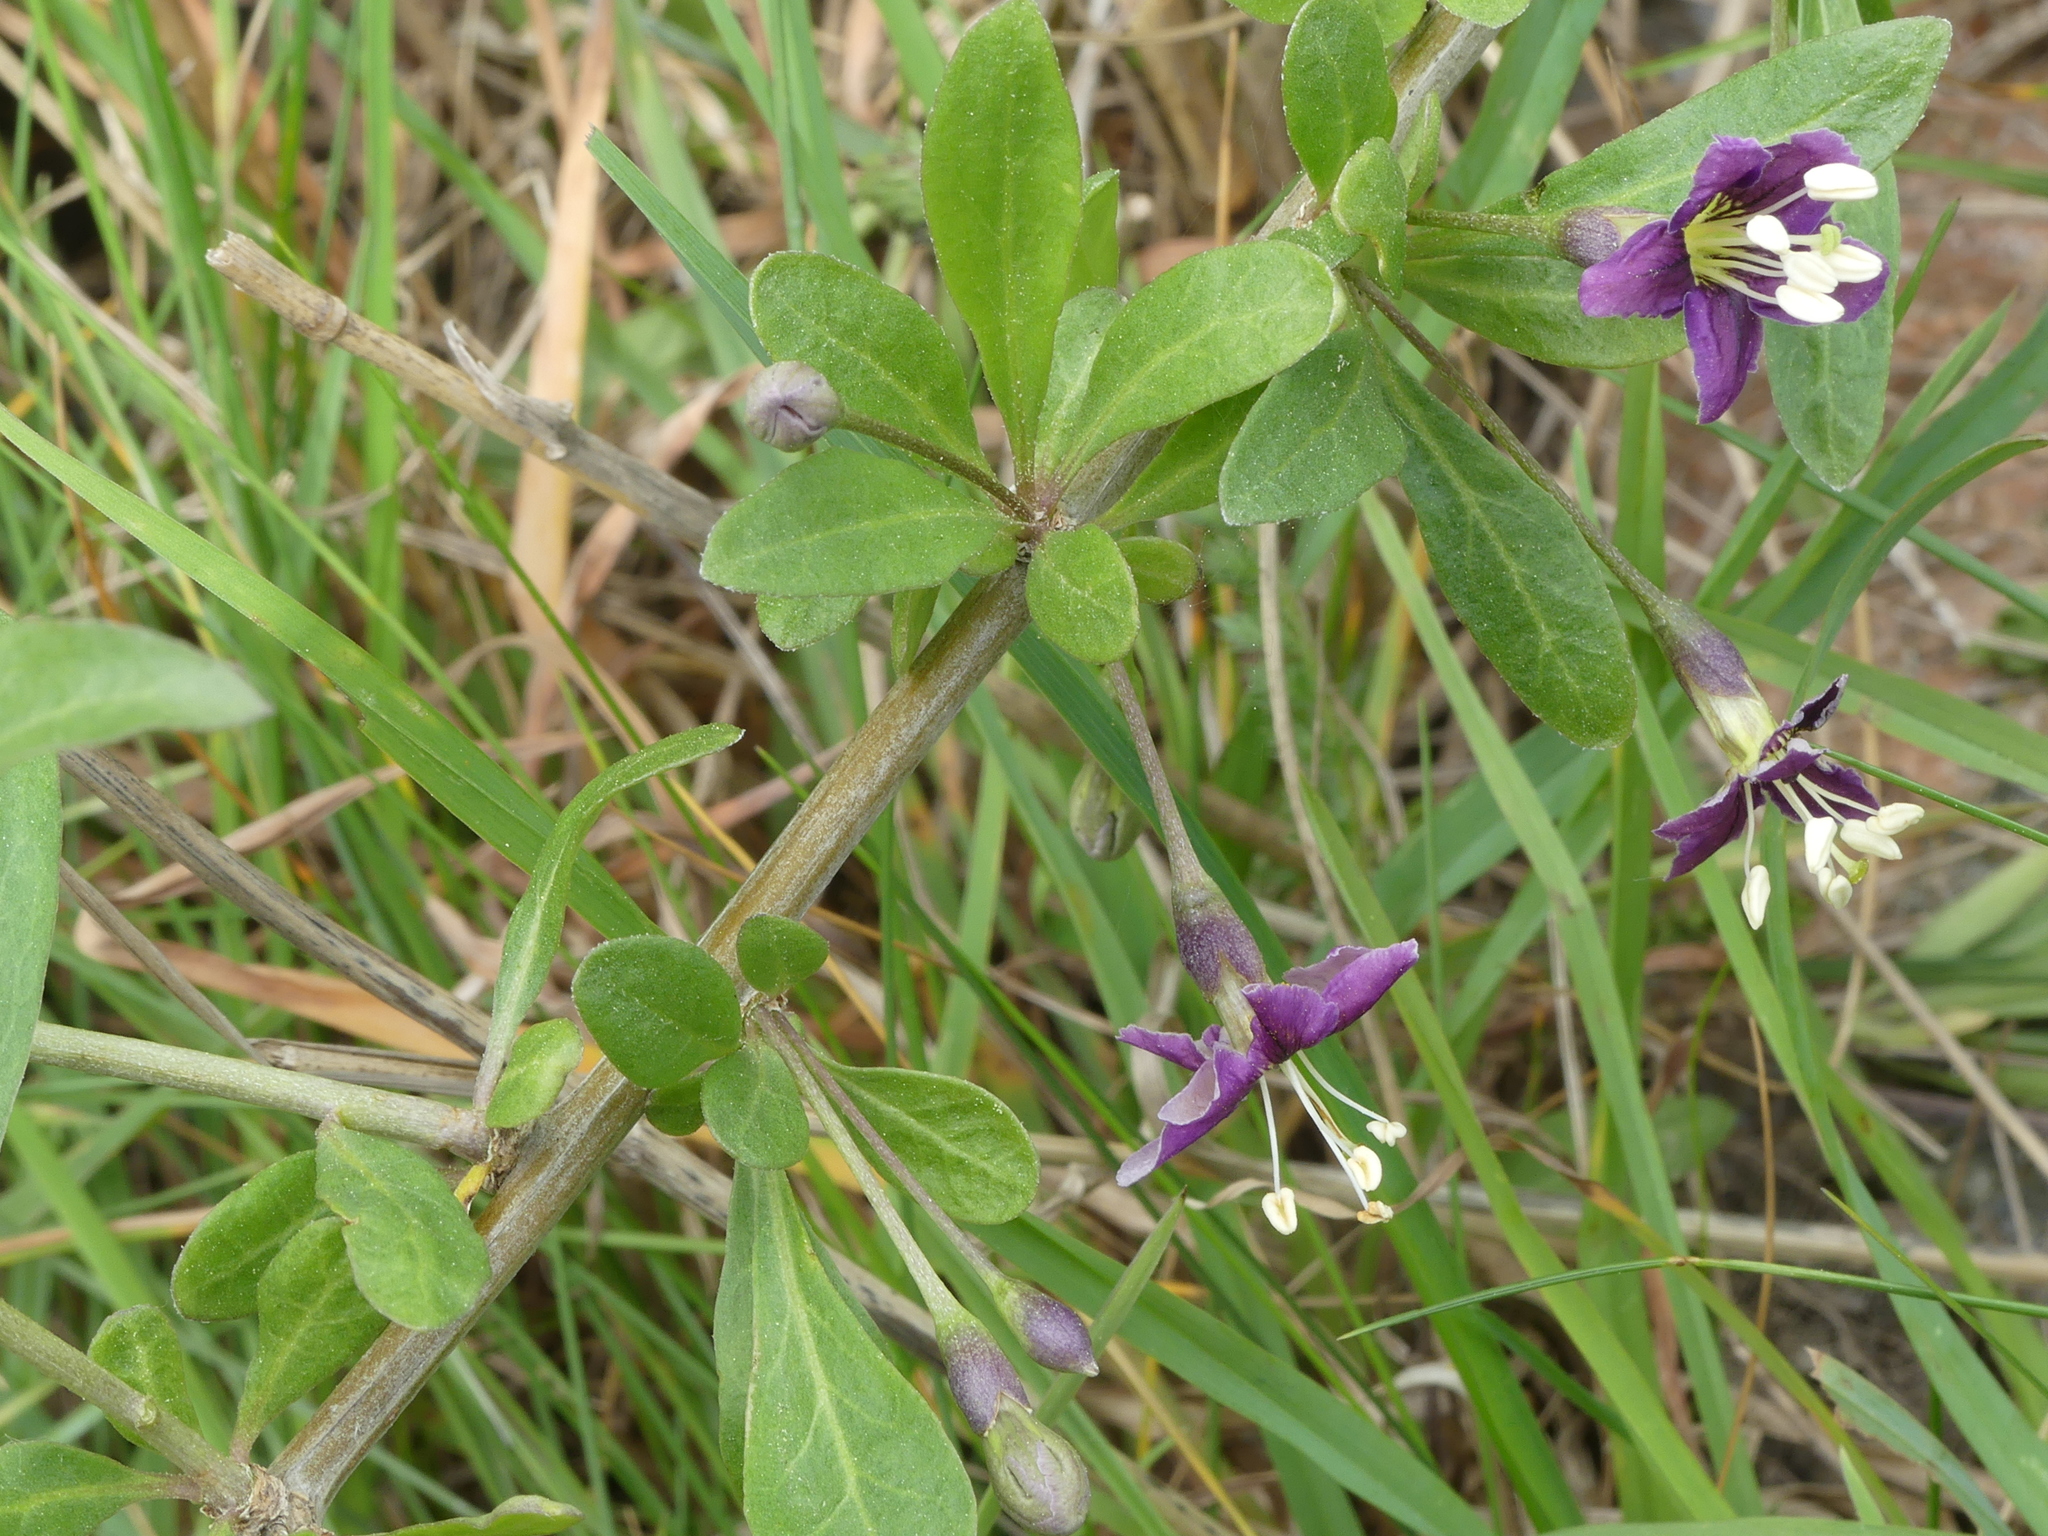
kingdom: Plantae
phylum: Tracheophyta
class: Magnoliopsida
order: Solanales
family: Solanaceae
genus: Lycium
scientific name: Lycium barbarum
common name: Duke of argyll's teaplant
